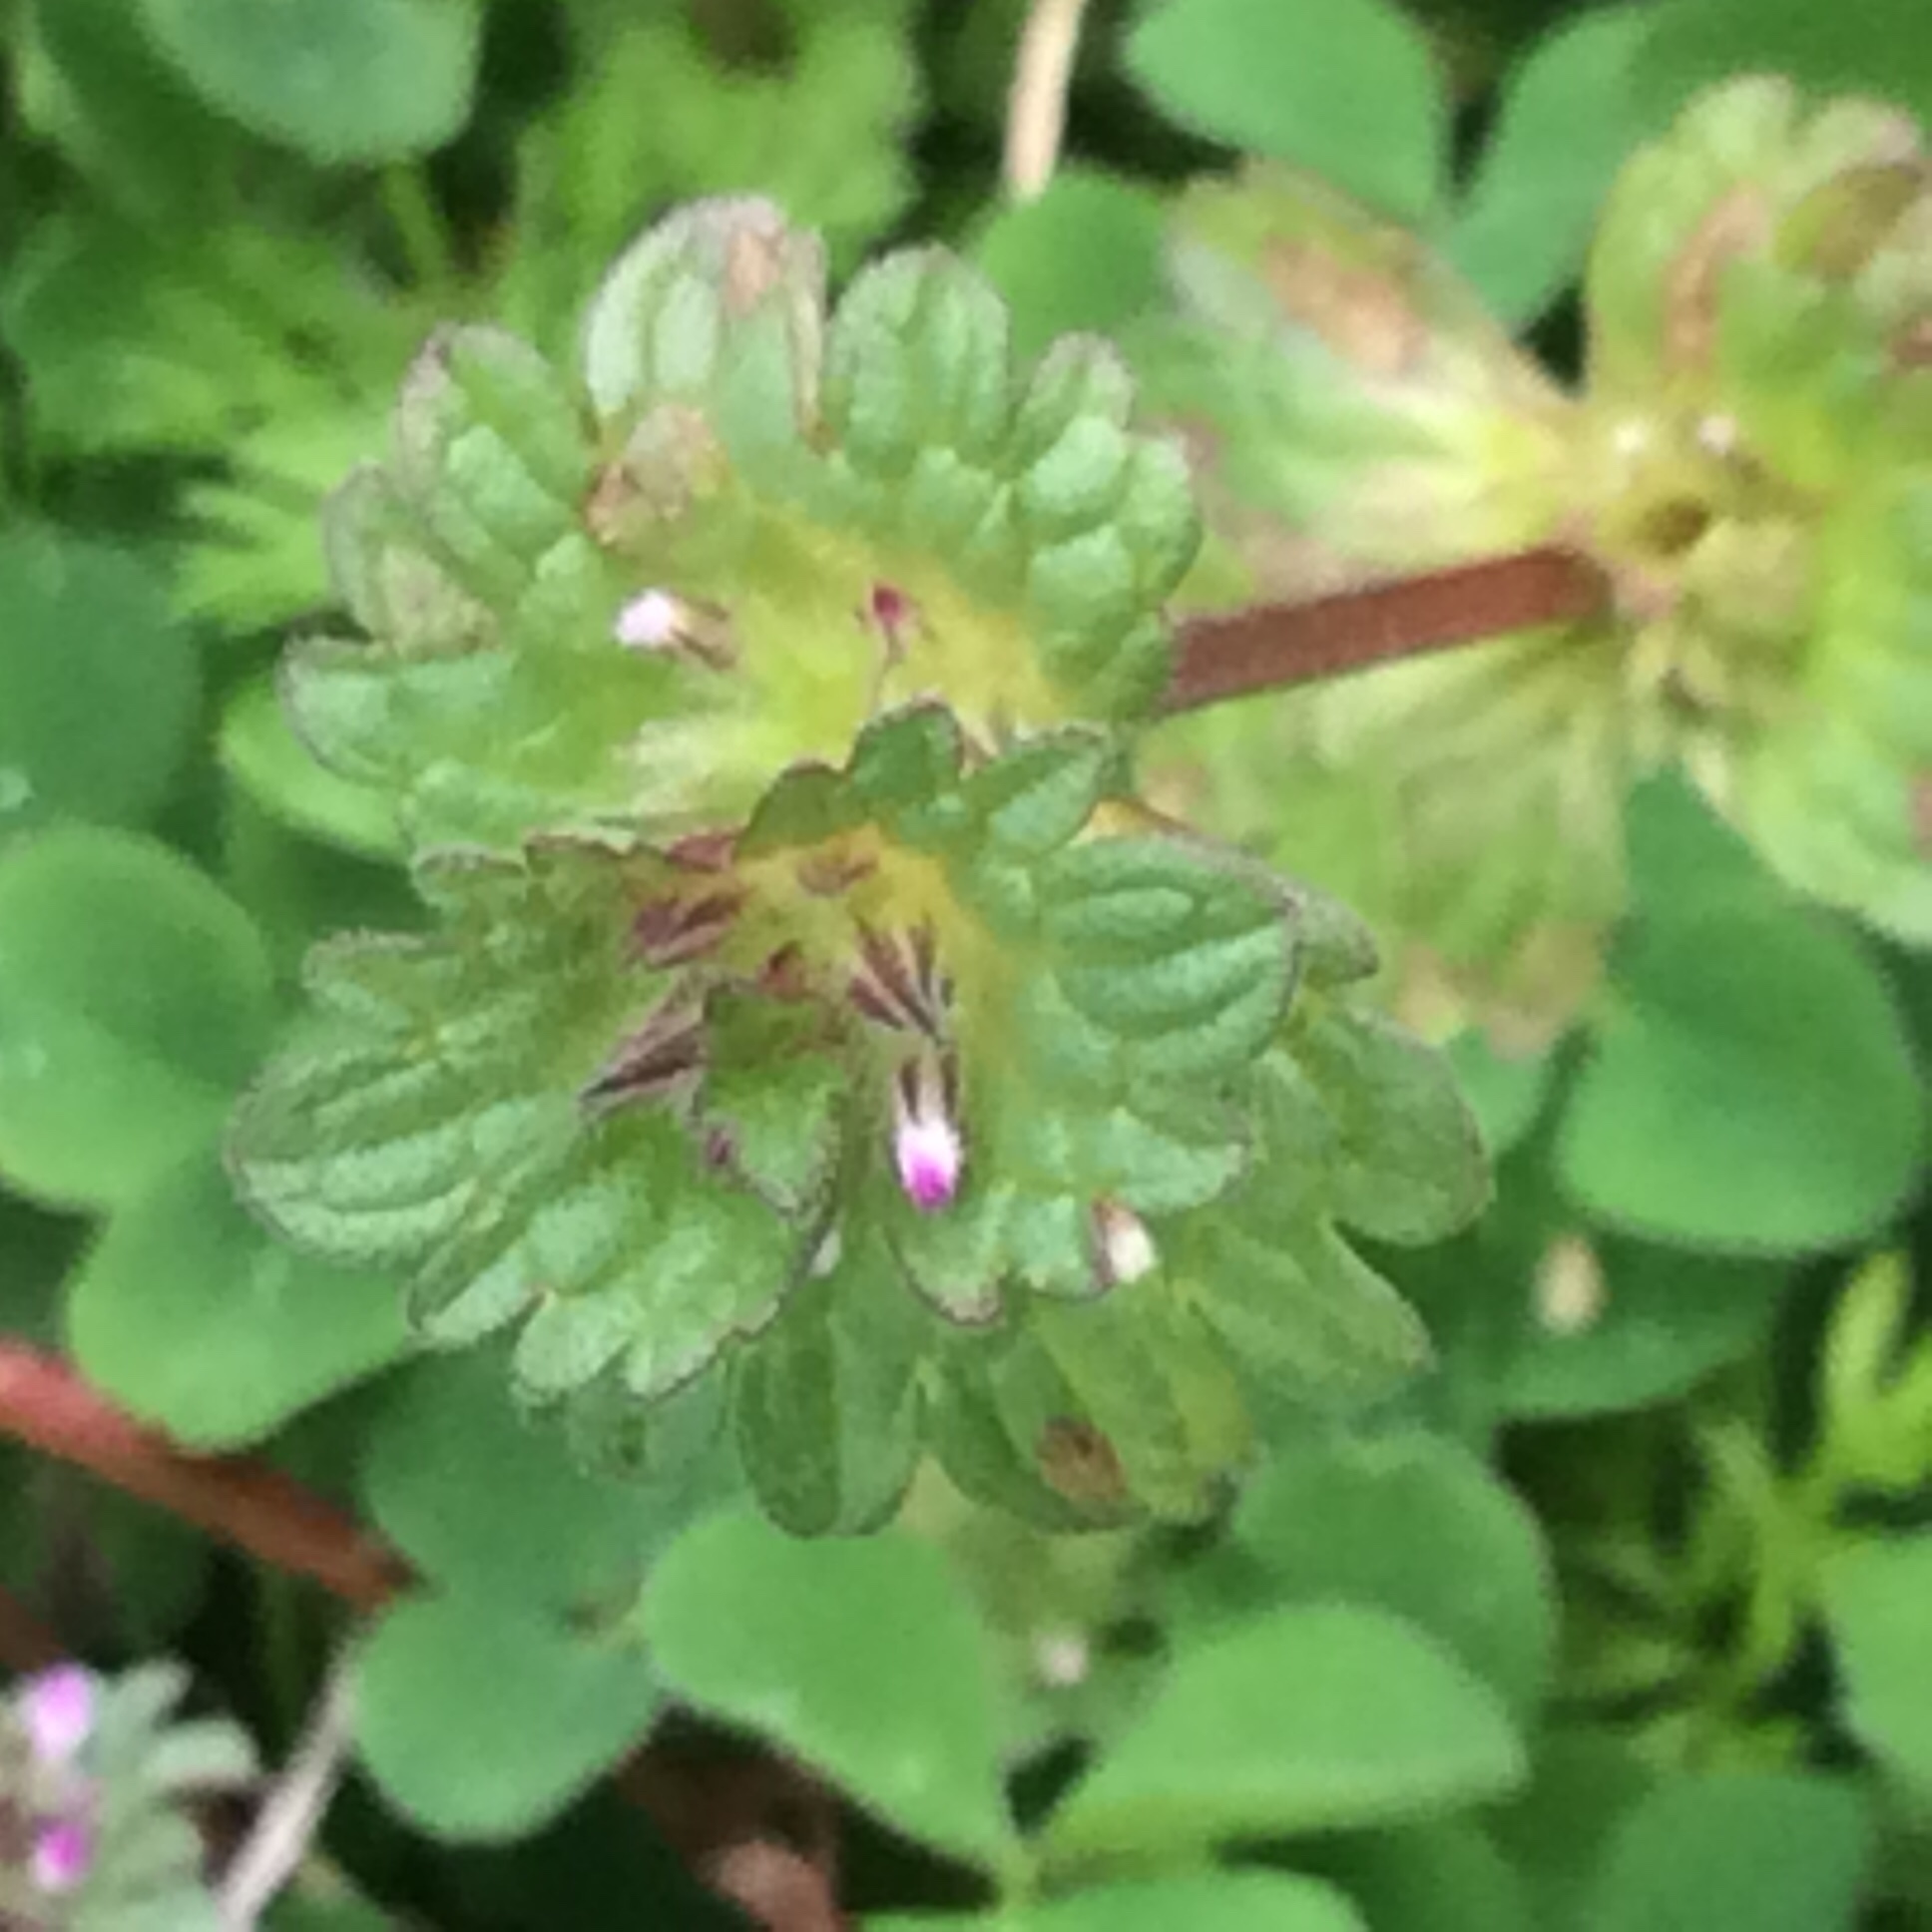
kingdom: Plantae
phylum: Tracheophyta
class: Magnoliopsida
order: Lamiales
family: Lamiaceae
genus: Lamium
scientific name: Lamium amplexicaule
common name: Henbit dead-nettle
